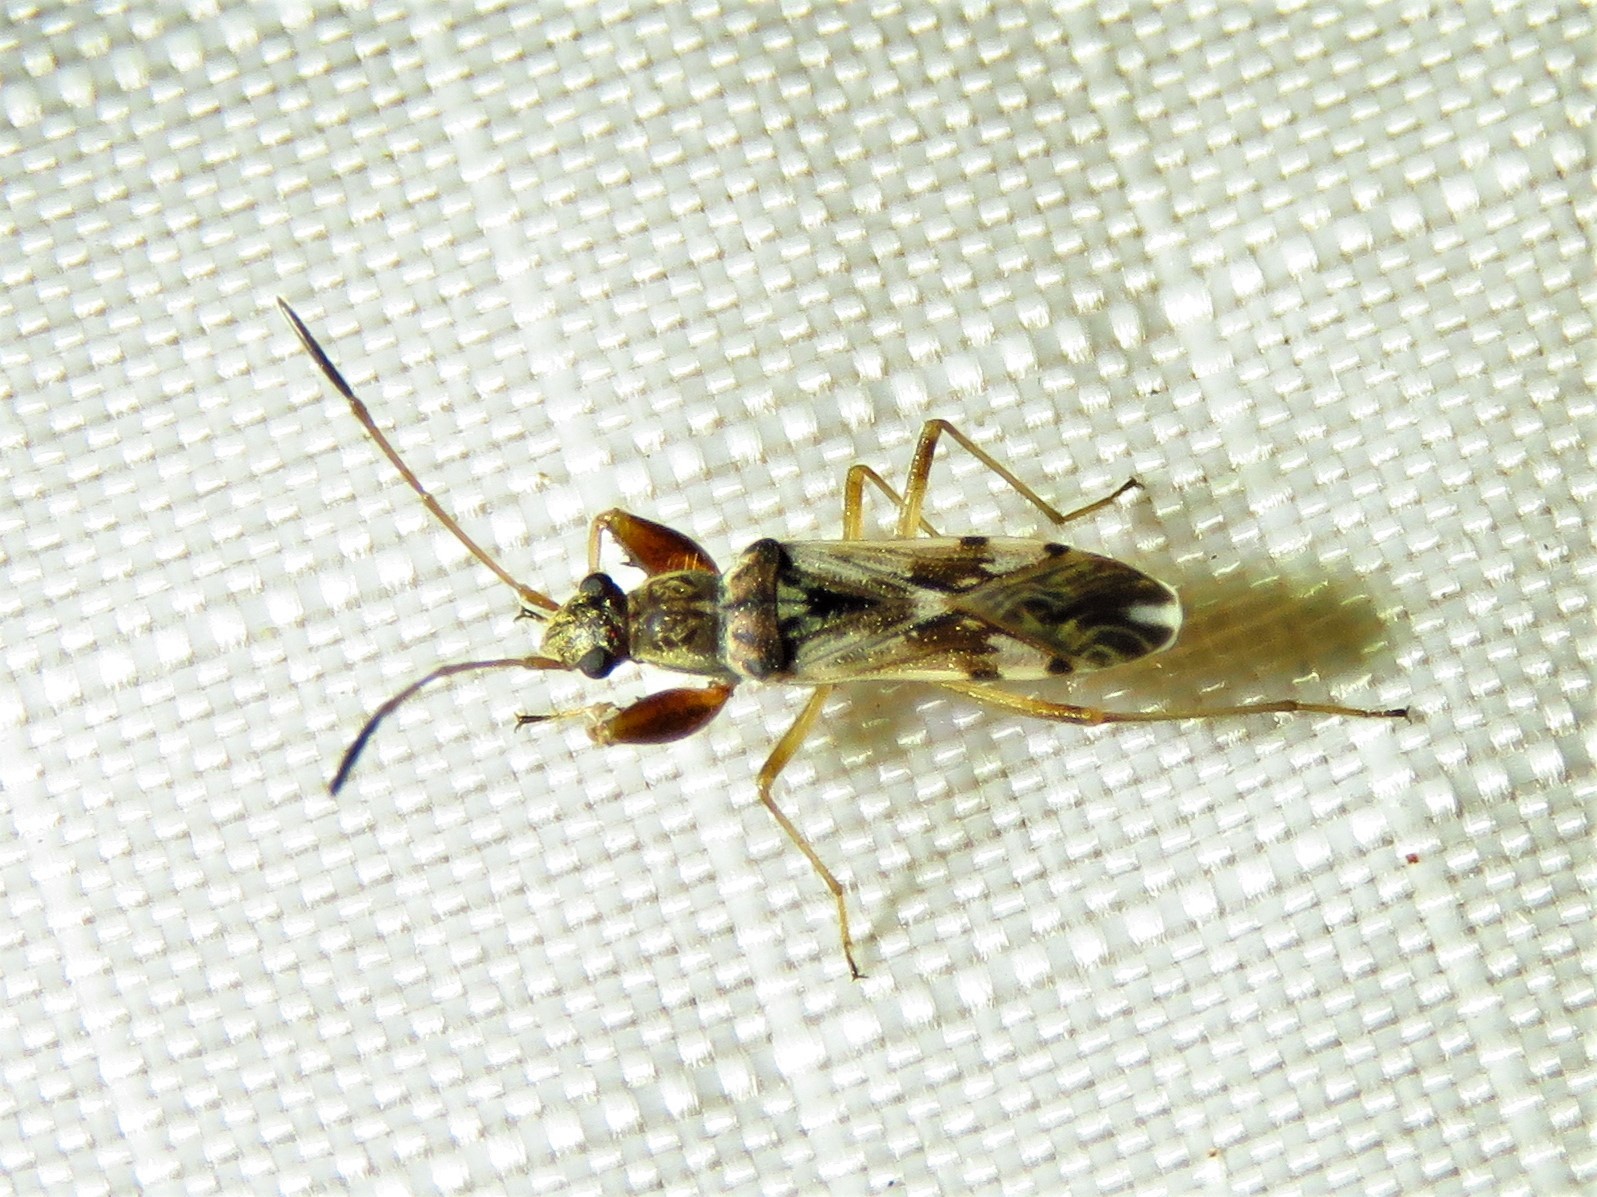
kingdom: Animalia
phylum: Arthropoda
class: Insecta
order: Hemiptera
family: Rhyparochromidae
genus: Neopamera
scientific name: Neopamera bilobata
